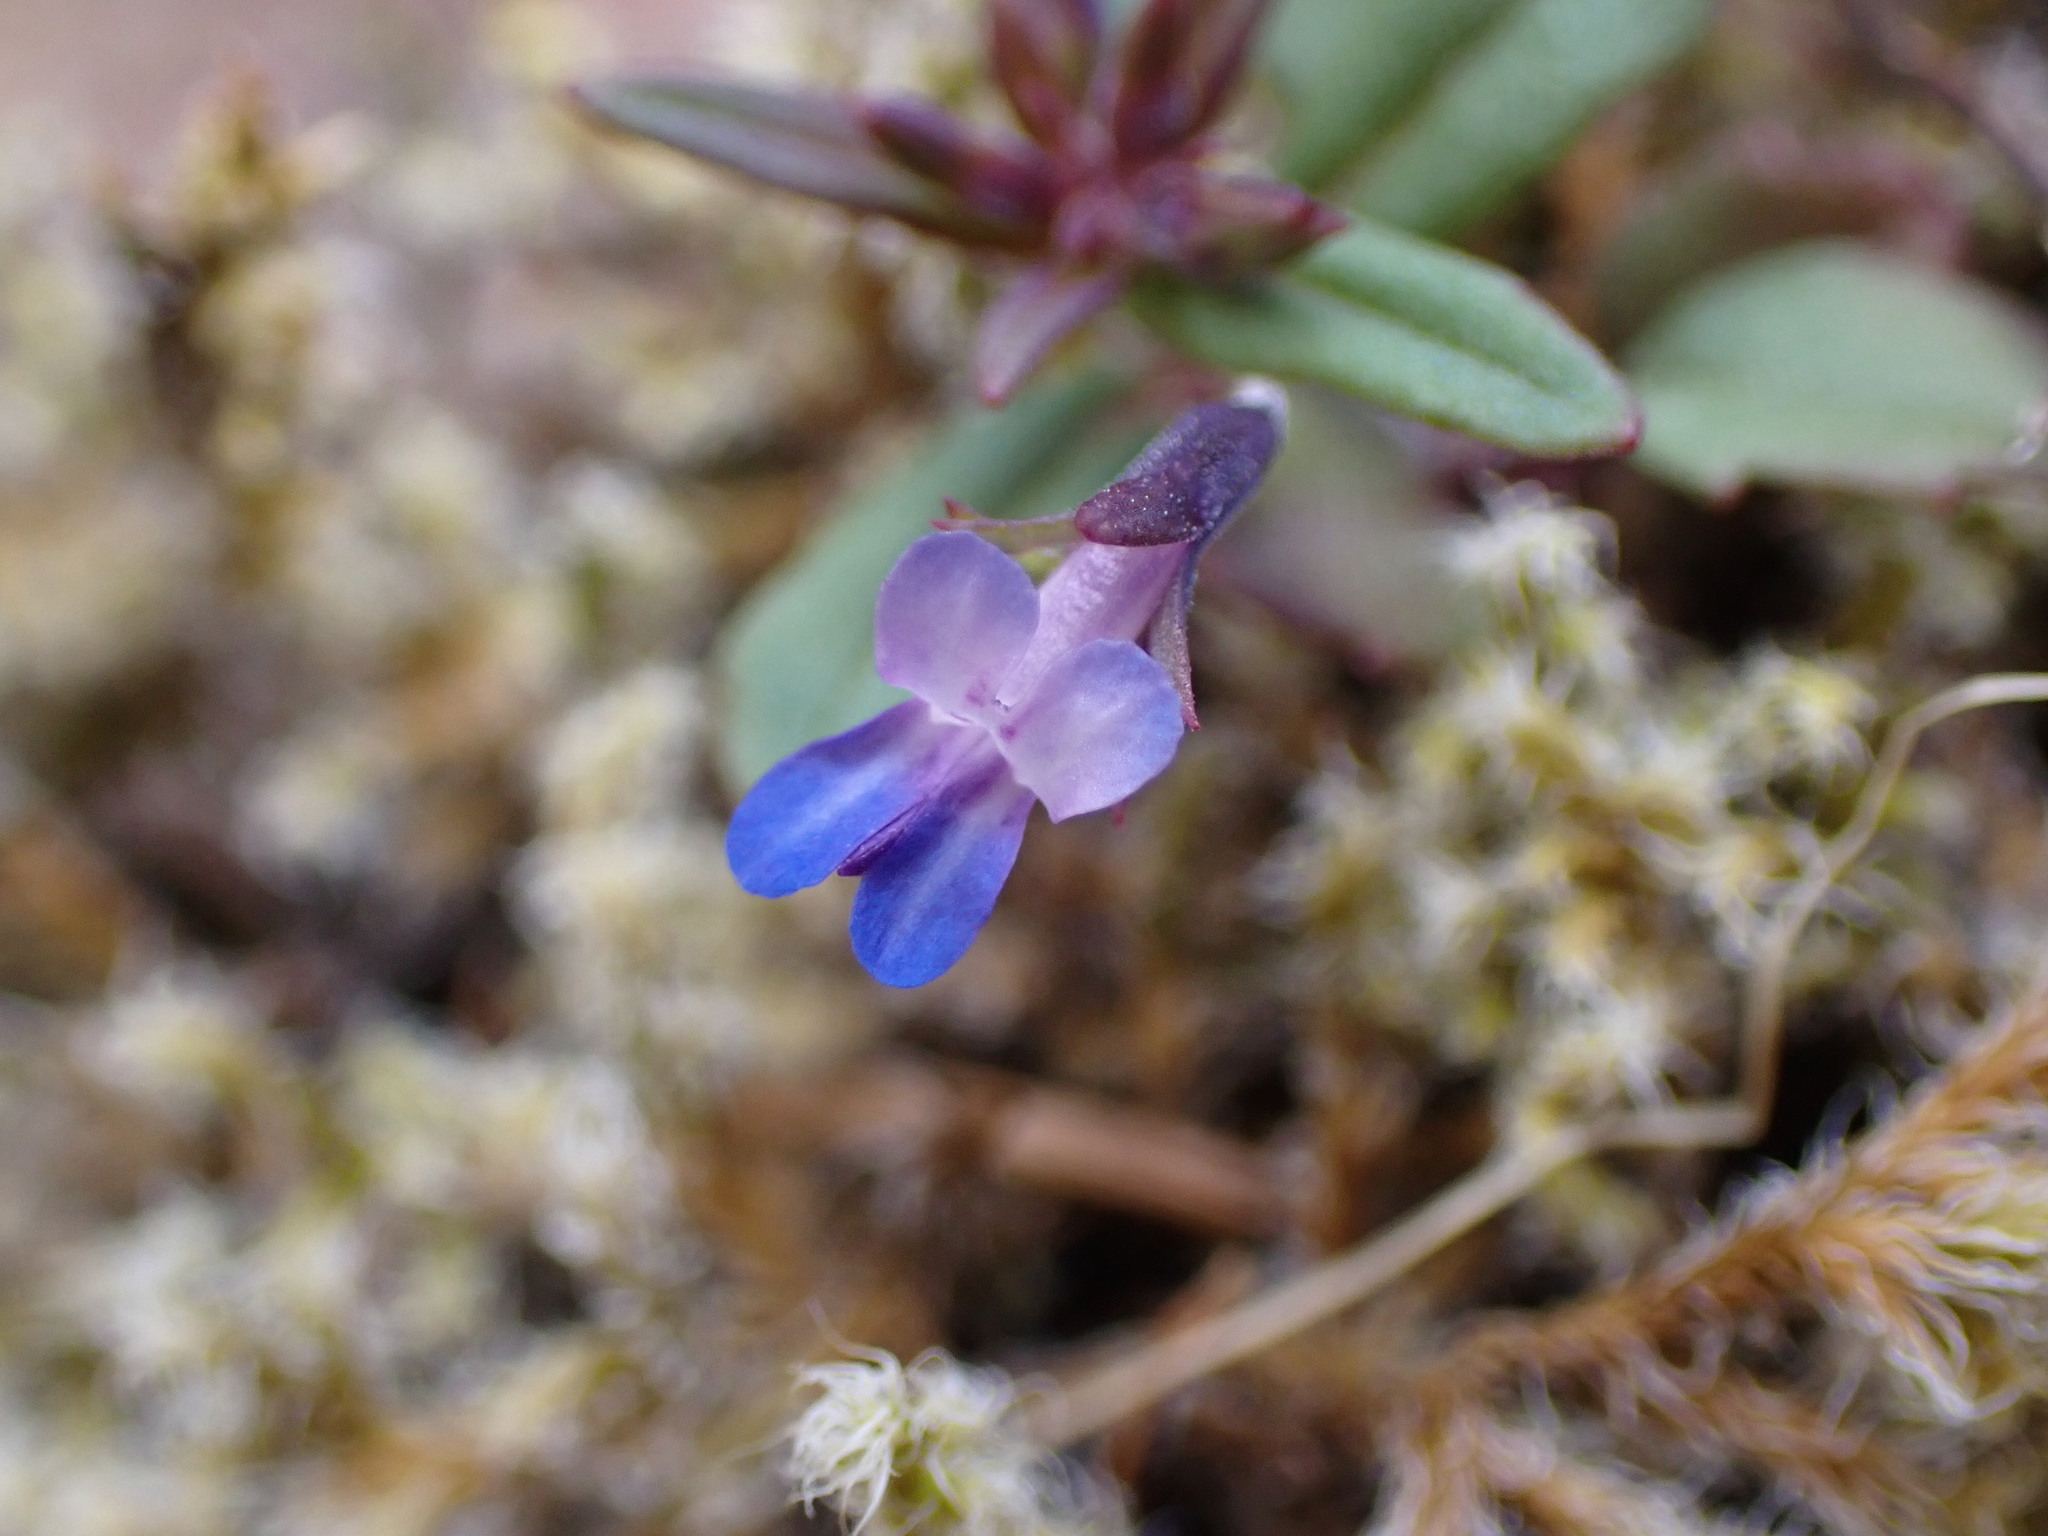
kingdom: Plantae
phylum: Tracheophyta
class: Magnoliopsida
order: Lamiales
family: Plantaginaceae
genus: Collinsia
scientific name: Collinsia parviflora
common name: Blue-lips
